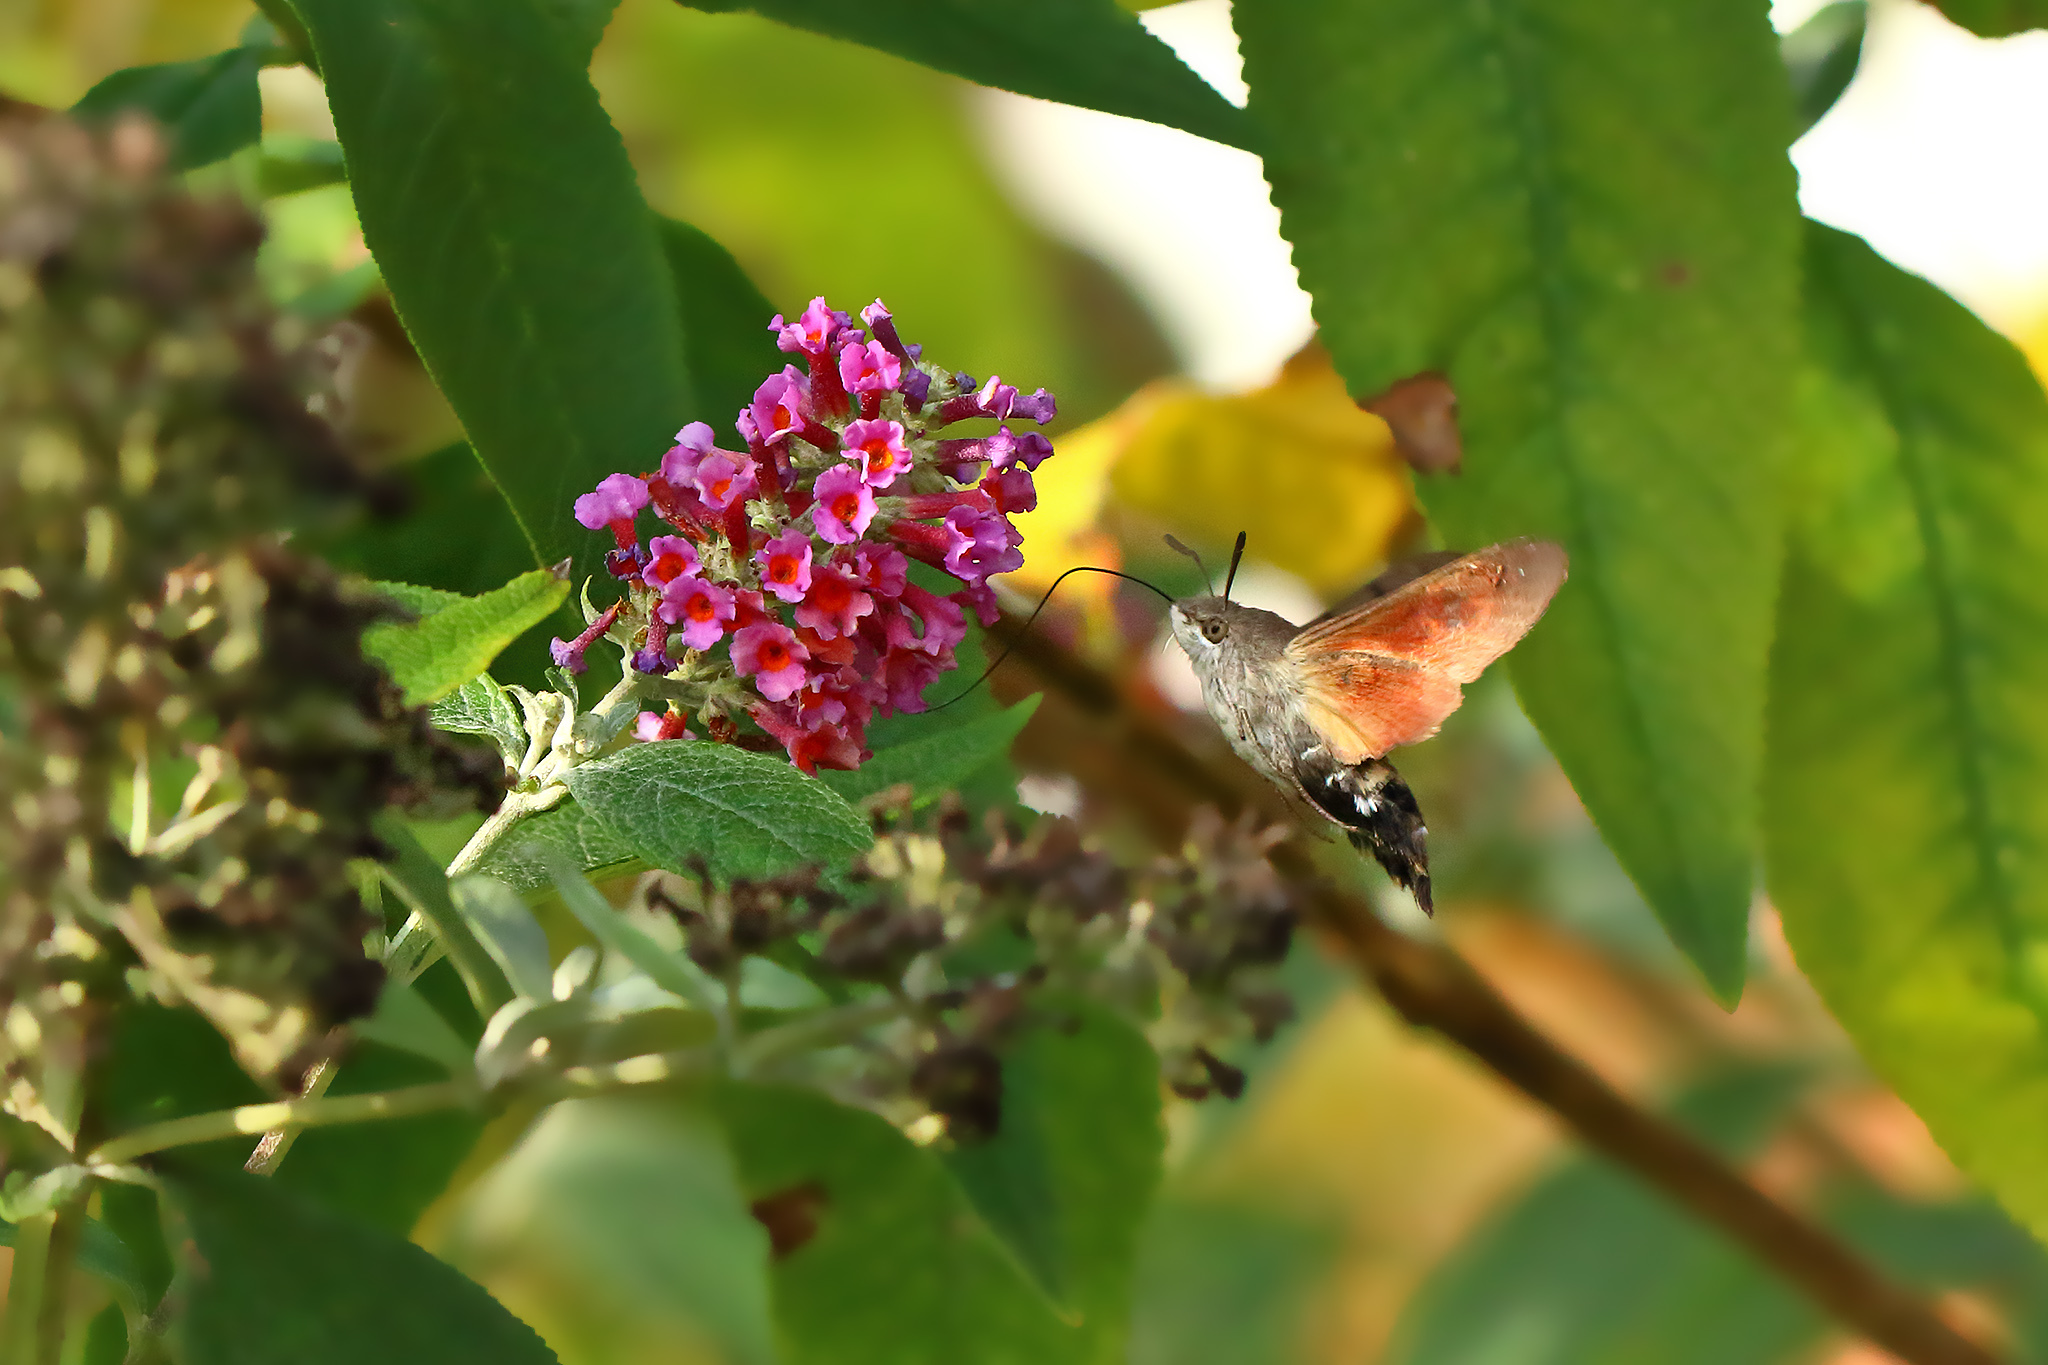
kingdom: Animalia
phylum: Arthropoda
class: Insecta
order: Lepidoptera
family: Sphingidae
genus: Macroglossum
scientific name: Macroglossum stellatarum
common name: Humming-bird hawk-moth
